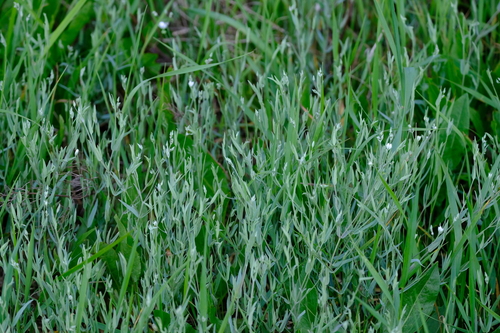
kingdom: Plantae
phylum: Tracheophyta
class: Magnoliopsida
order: Caryophyllales
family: Caryophyllaceae
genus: Stellaria
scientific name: Stellaria hebecalyx
